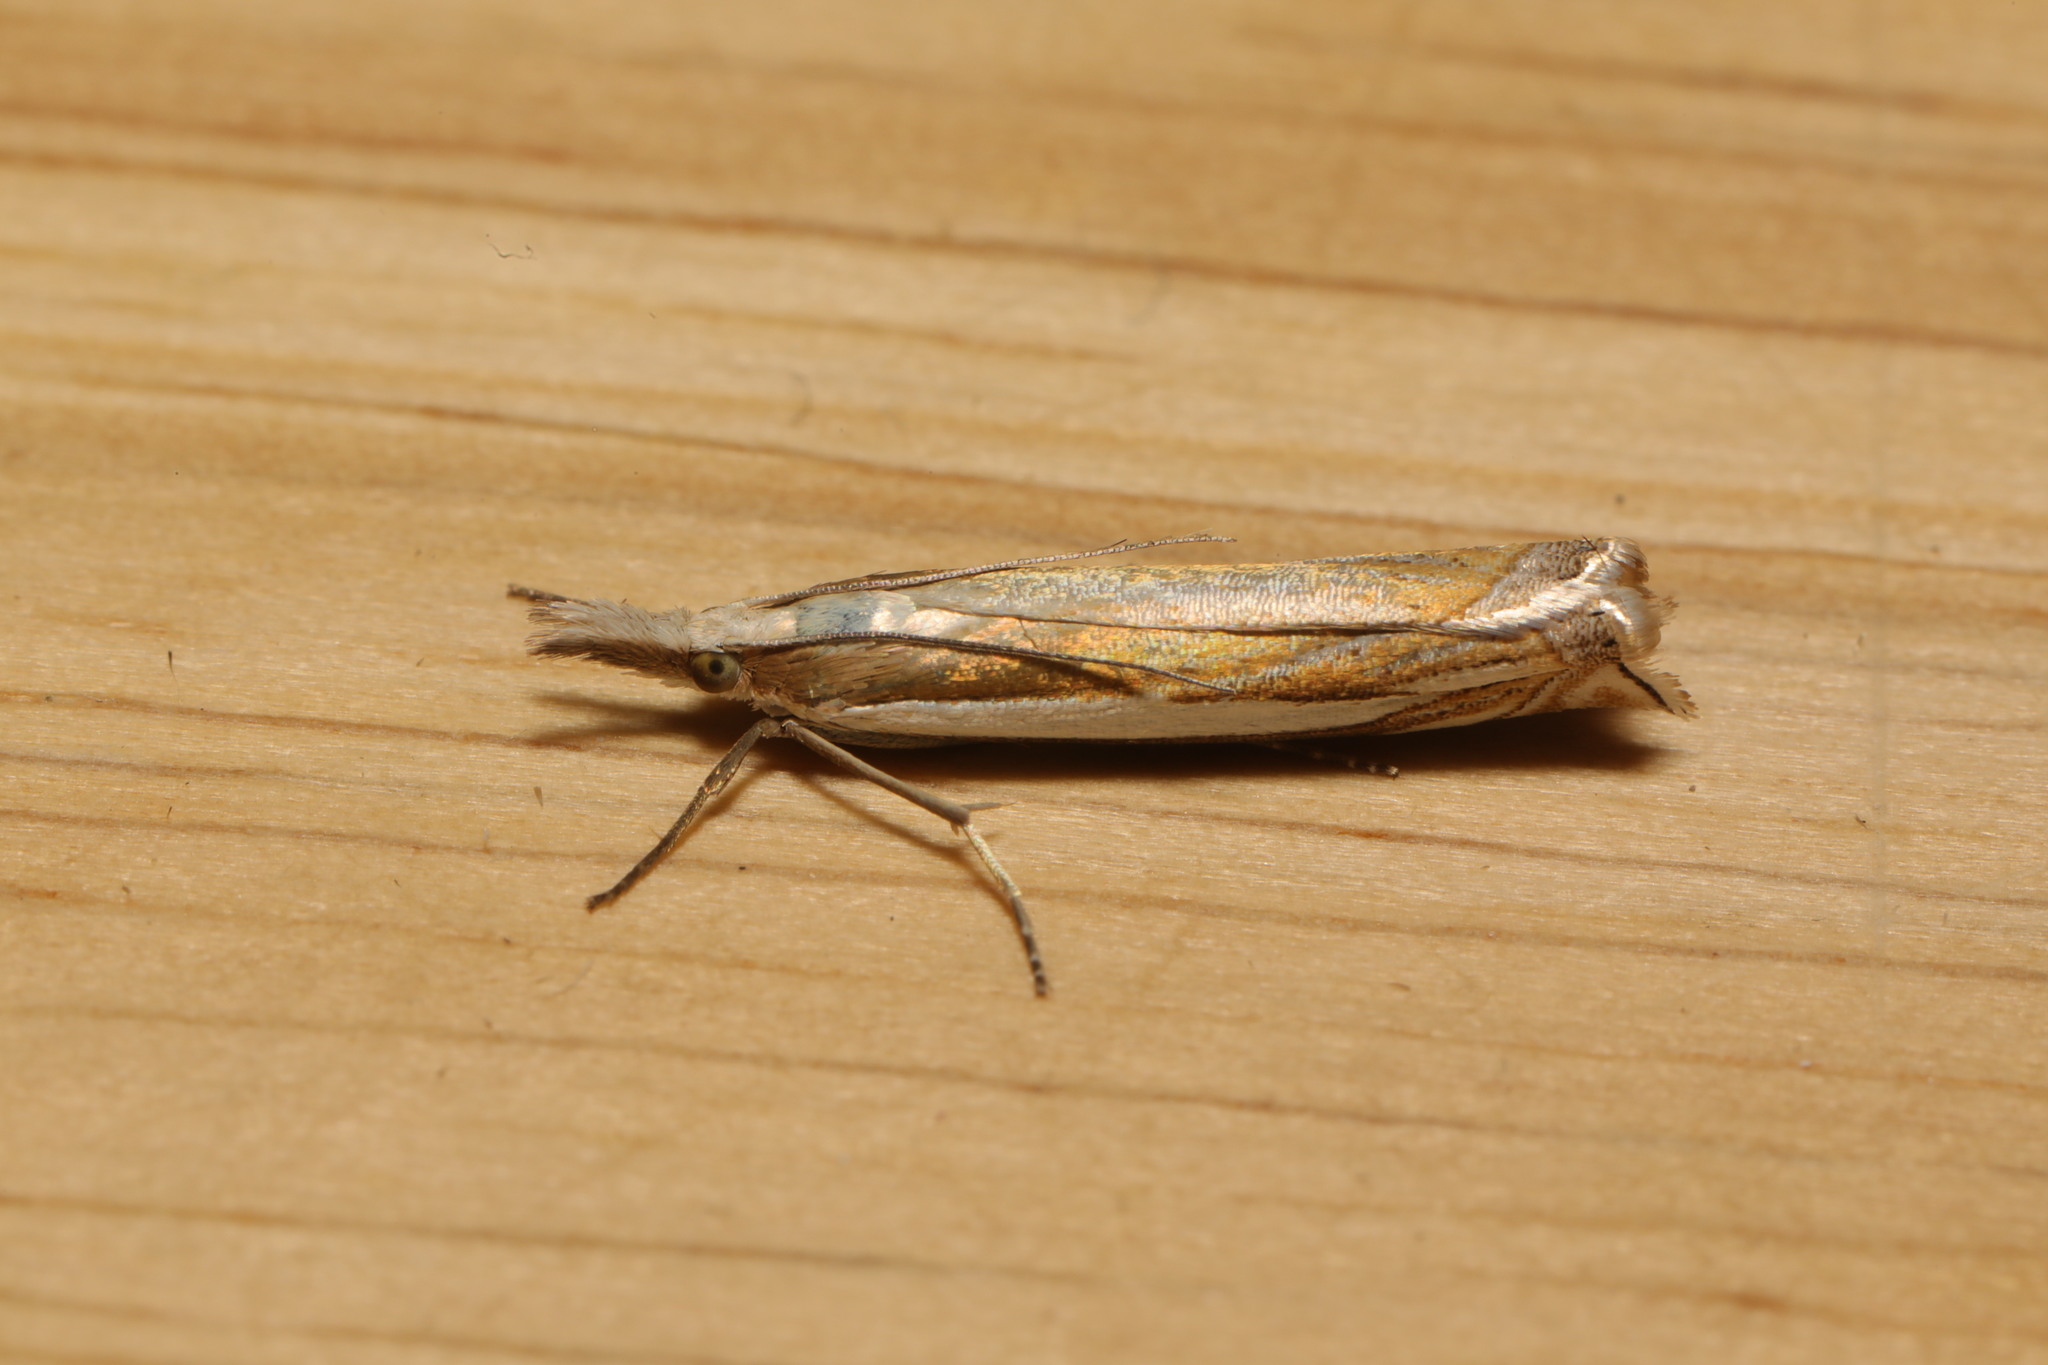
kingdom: Animalia
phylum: Arthropoda
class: Insecta
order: Lepidoptera
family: Crambidae
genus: Crambus
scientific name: Crambus pascuella
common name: Inlaid grass-veneer
